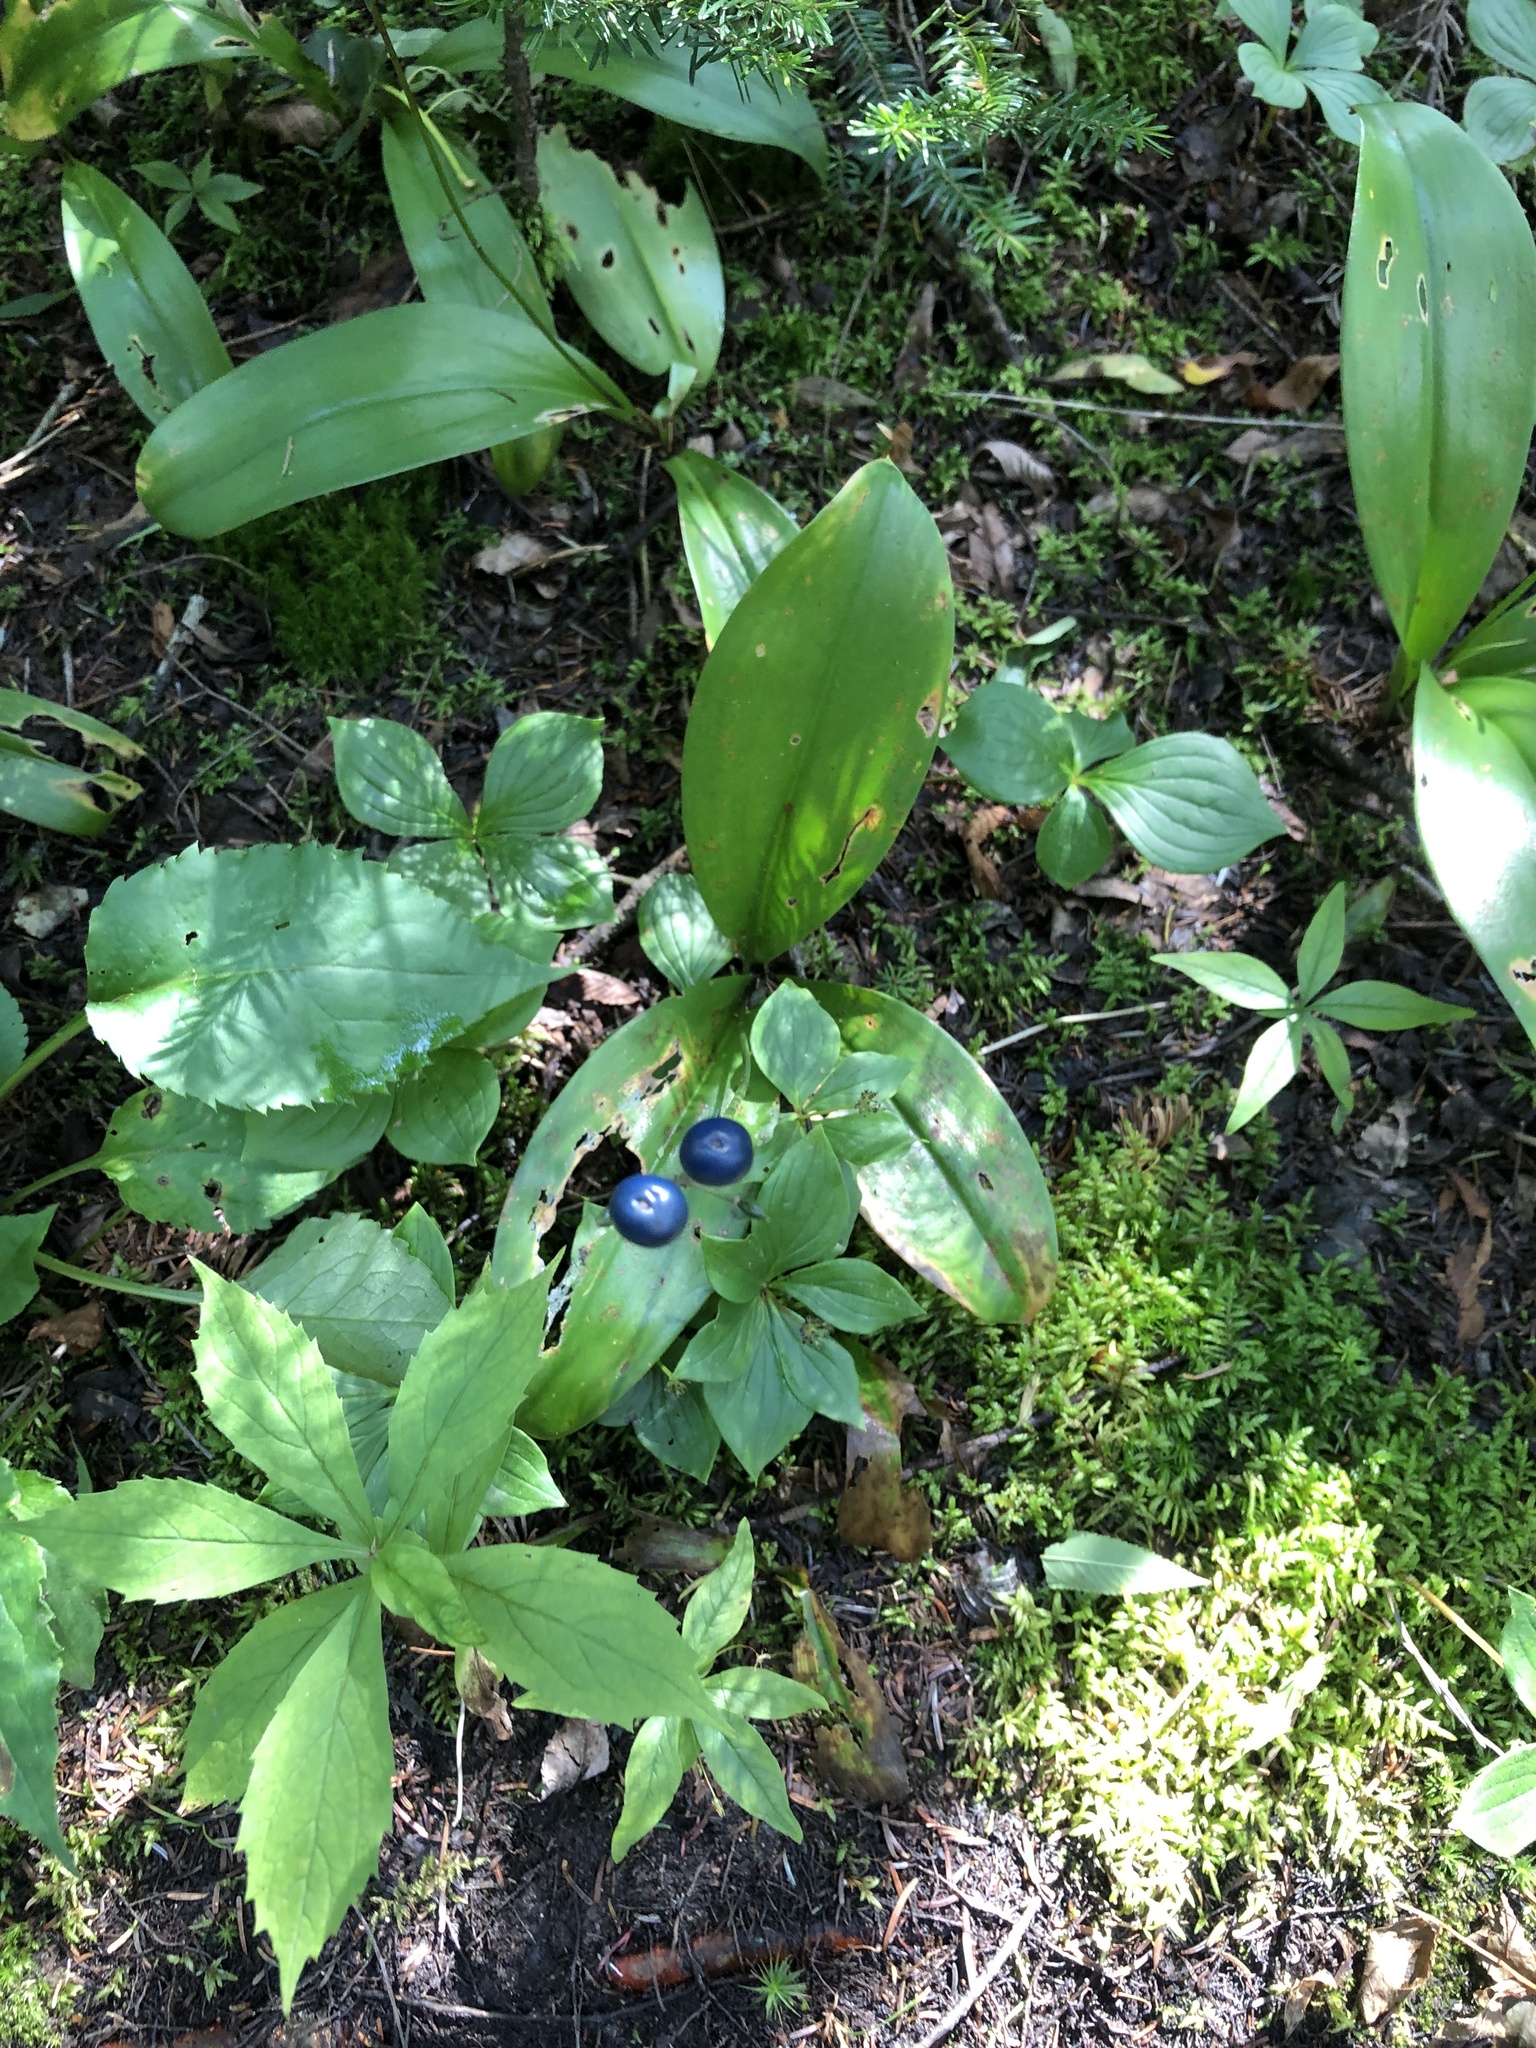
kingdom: Plantae
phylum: Tracheophyta
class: Liliopsida
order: Liliales
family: Liliaceae
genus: Clintonia
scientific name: Clintonia borealis
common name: Yellow clintonia
